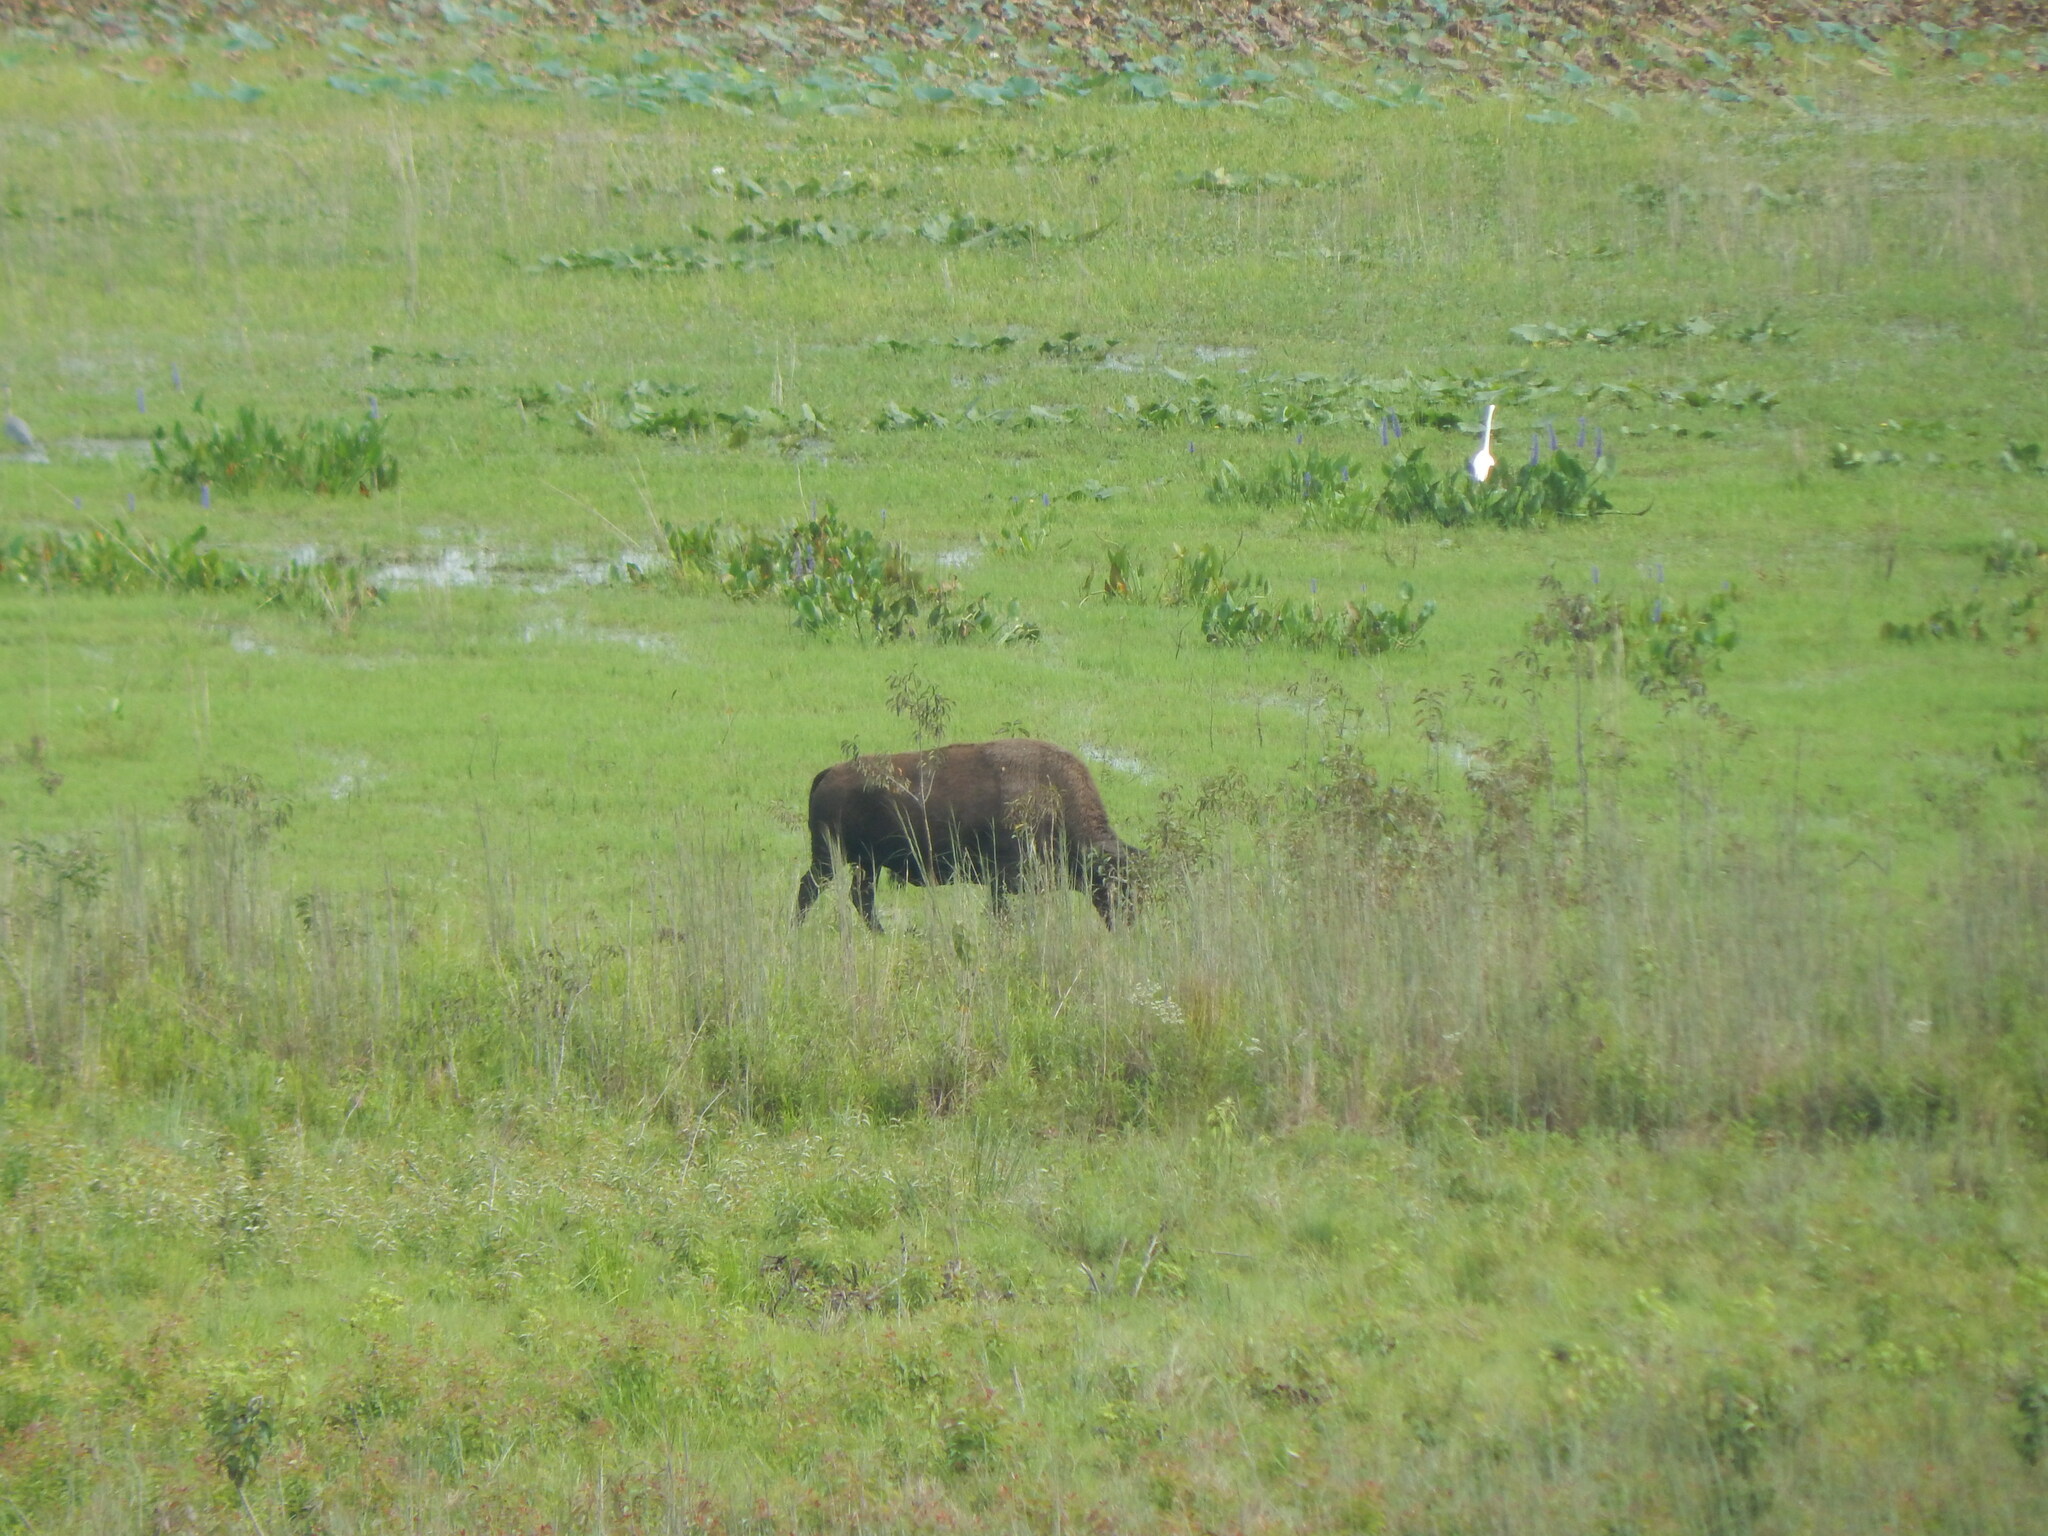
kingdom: Animalia
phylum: Chordata
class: Mammalia
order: Artiodactyla
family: Bovidae
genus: Bison
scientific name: Bison bison
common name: American bison
